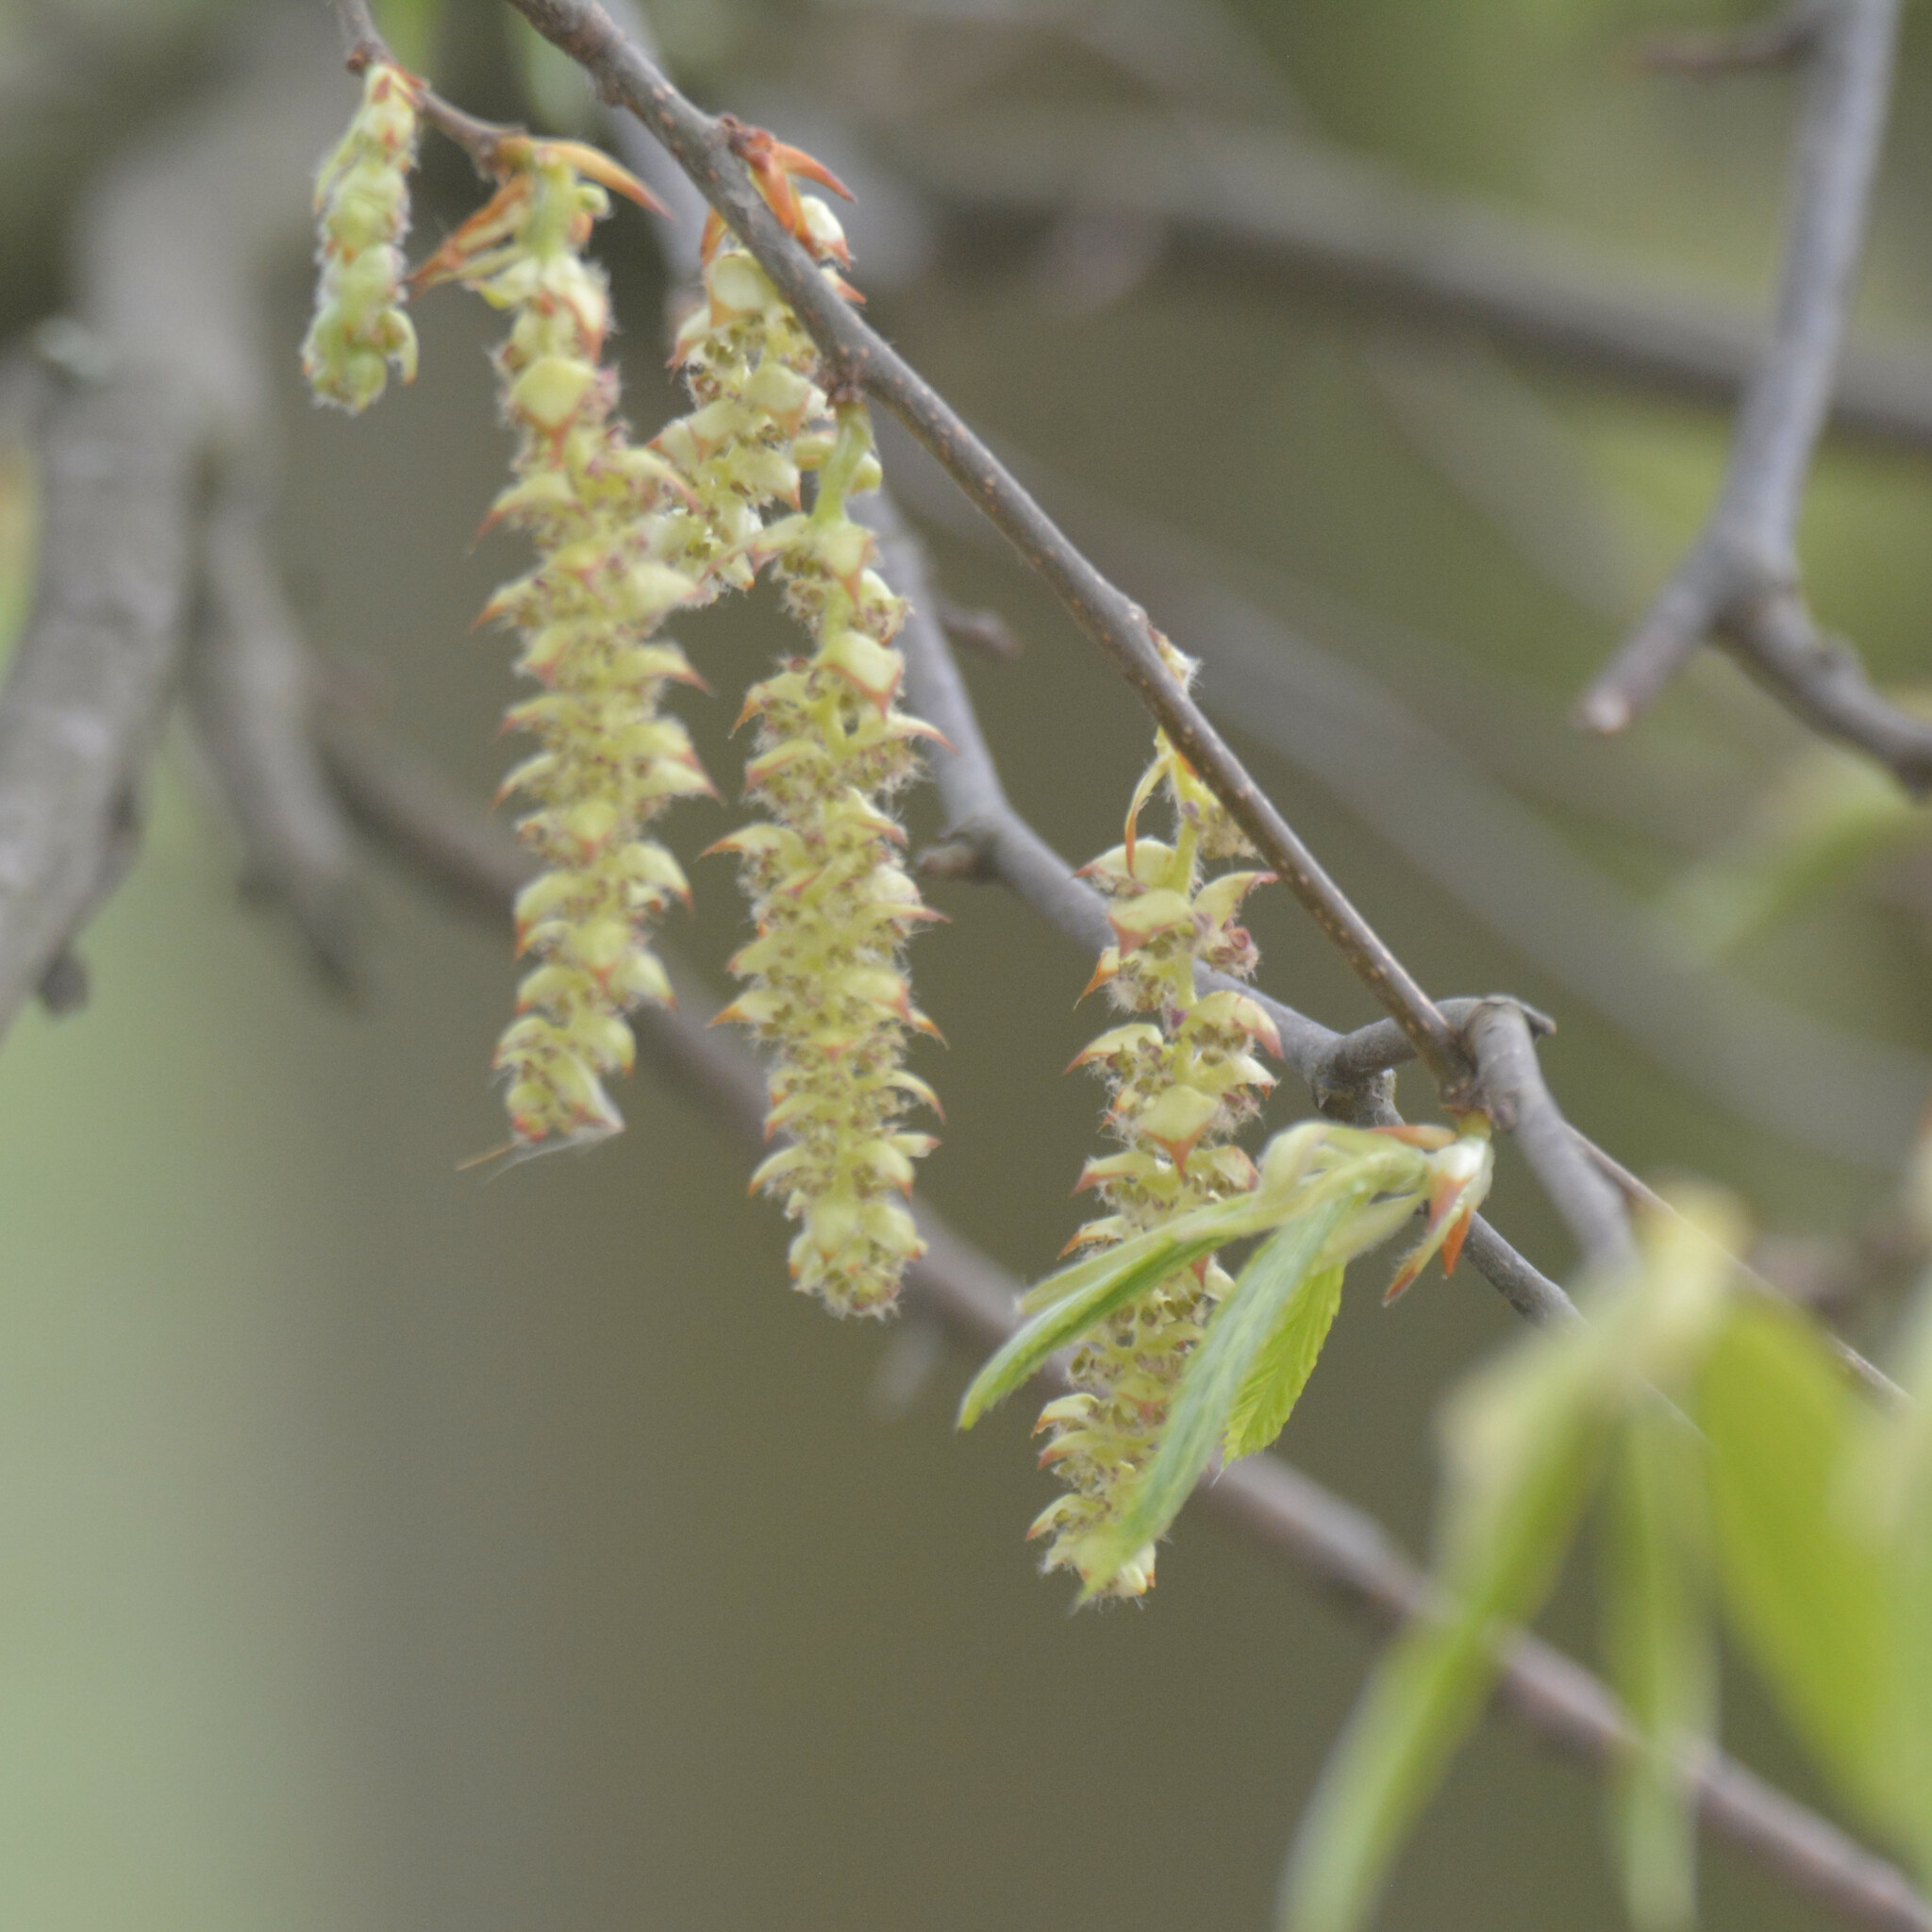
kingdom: Plantae
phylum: Tracheophyta
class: Magnoliopsida
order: Fagales
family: Betulaceae
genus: Carpinus
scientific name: Carpinus betulus
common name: Hornbeam
